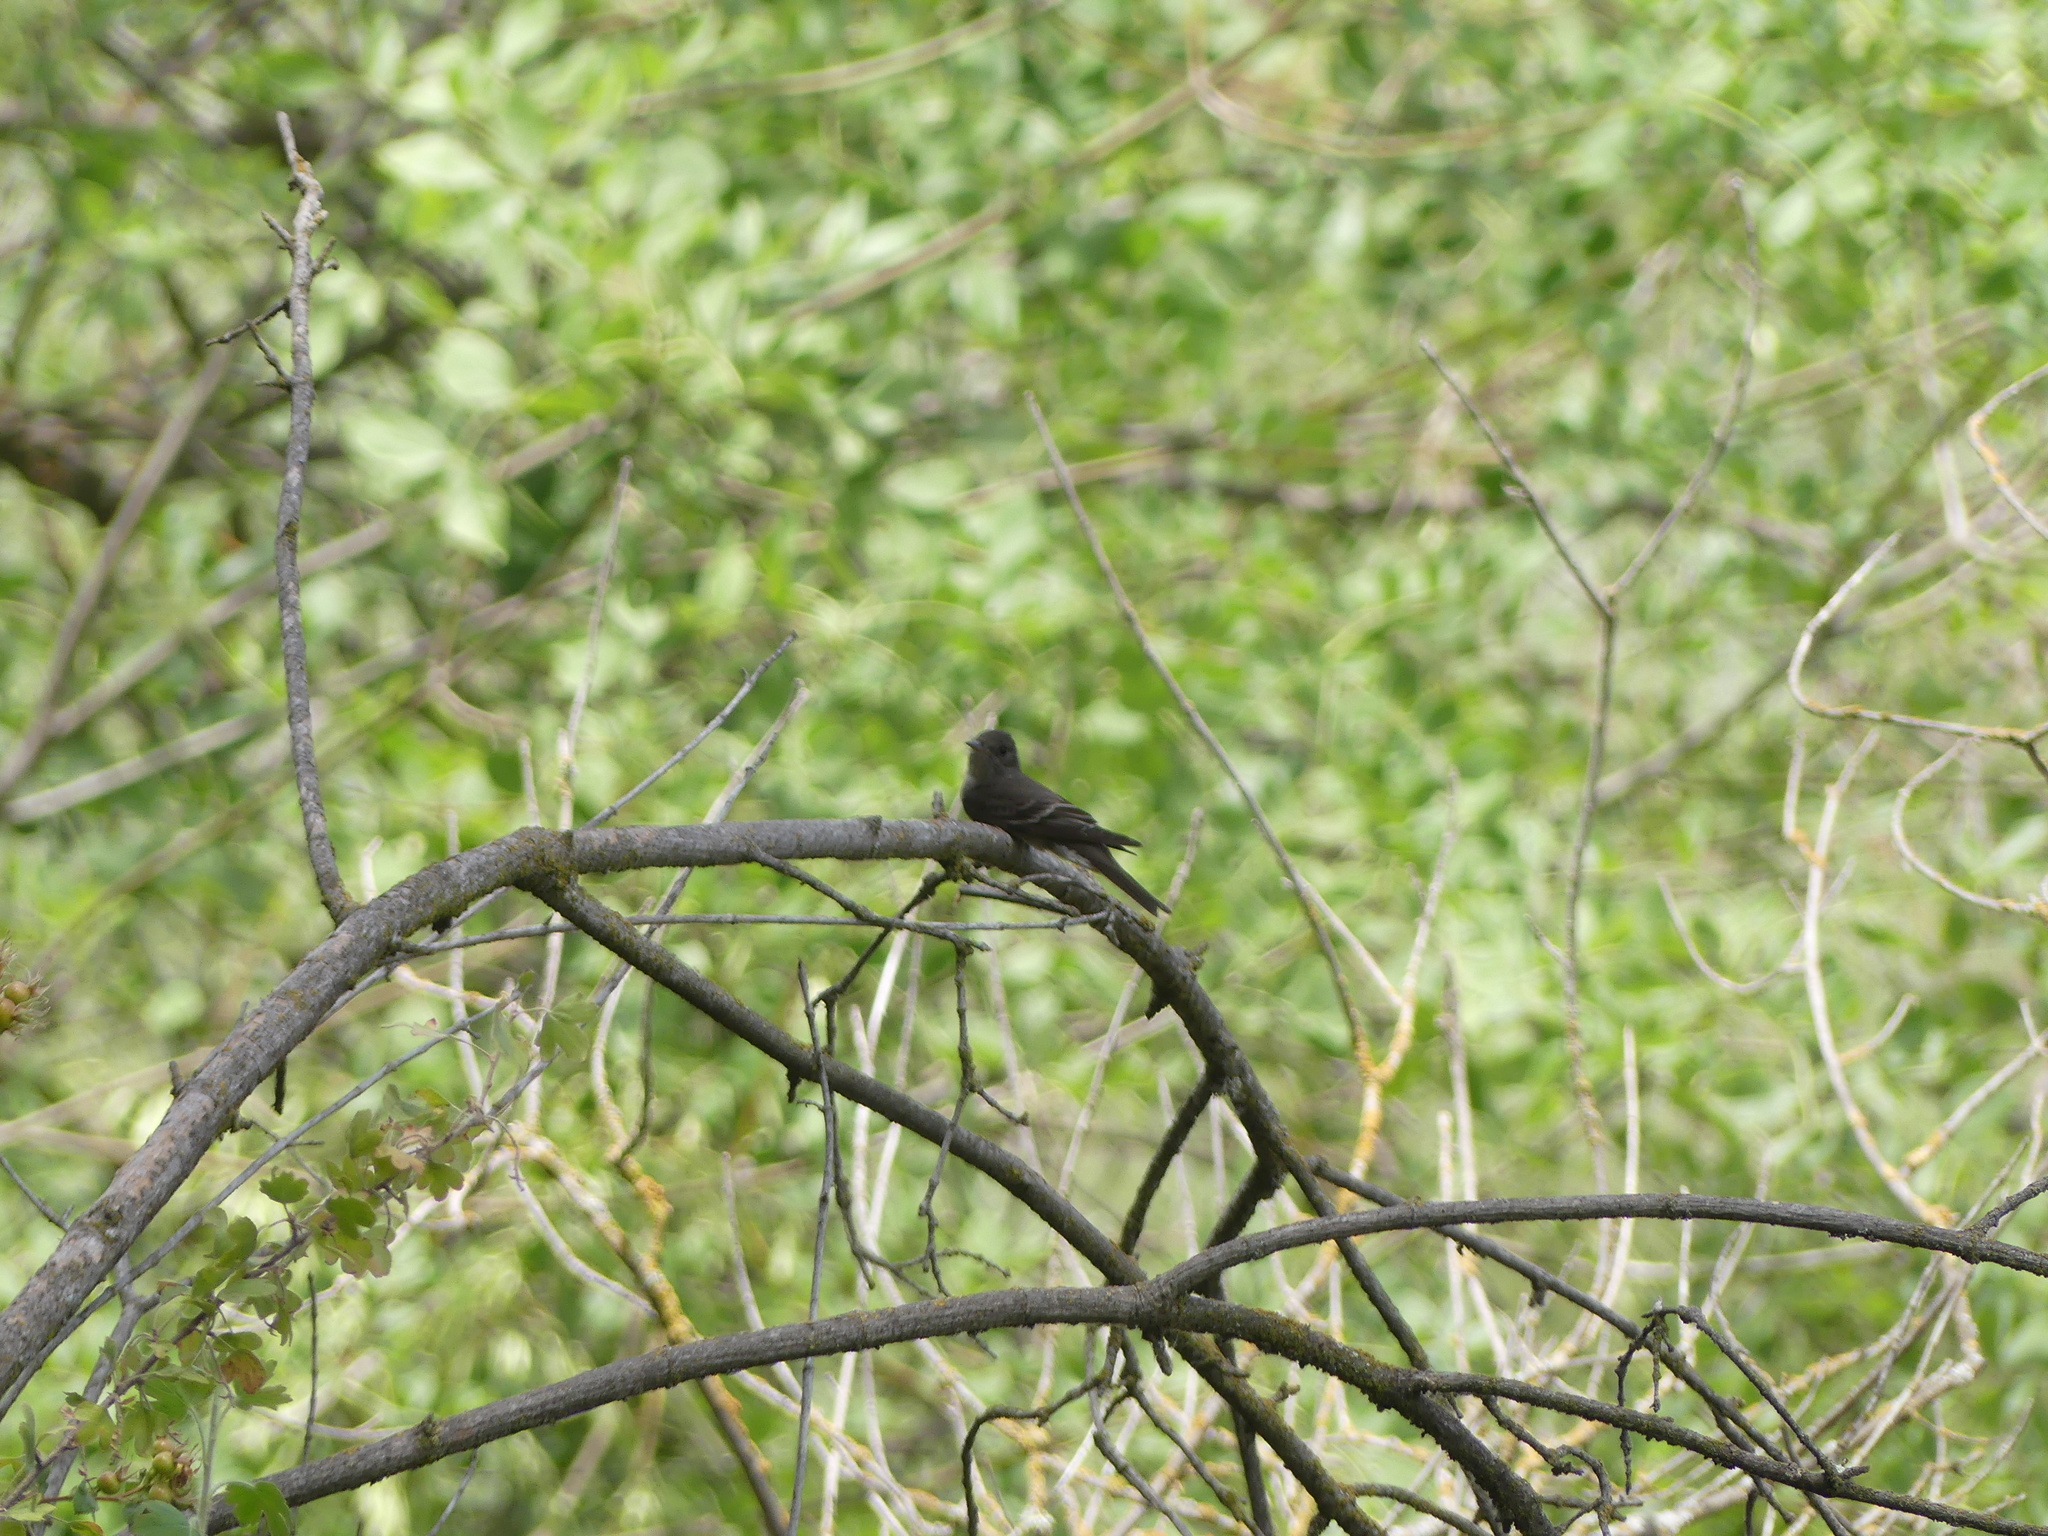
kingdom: Animalia
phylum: Chordata
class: Aves
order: Passeriformes
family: Tyrannidae
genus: Contopus
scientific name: Contopus sordidulus
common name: Western wood-pewee
